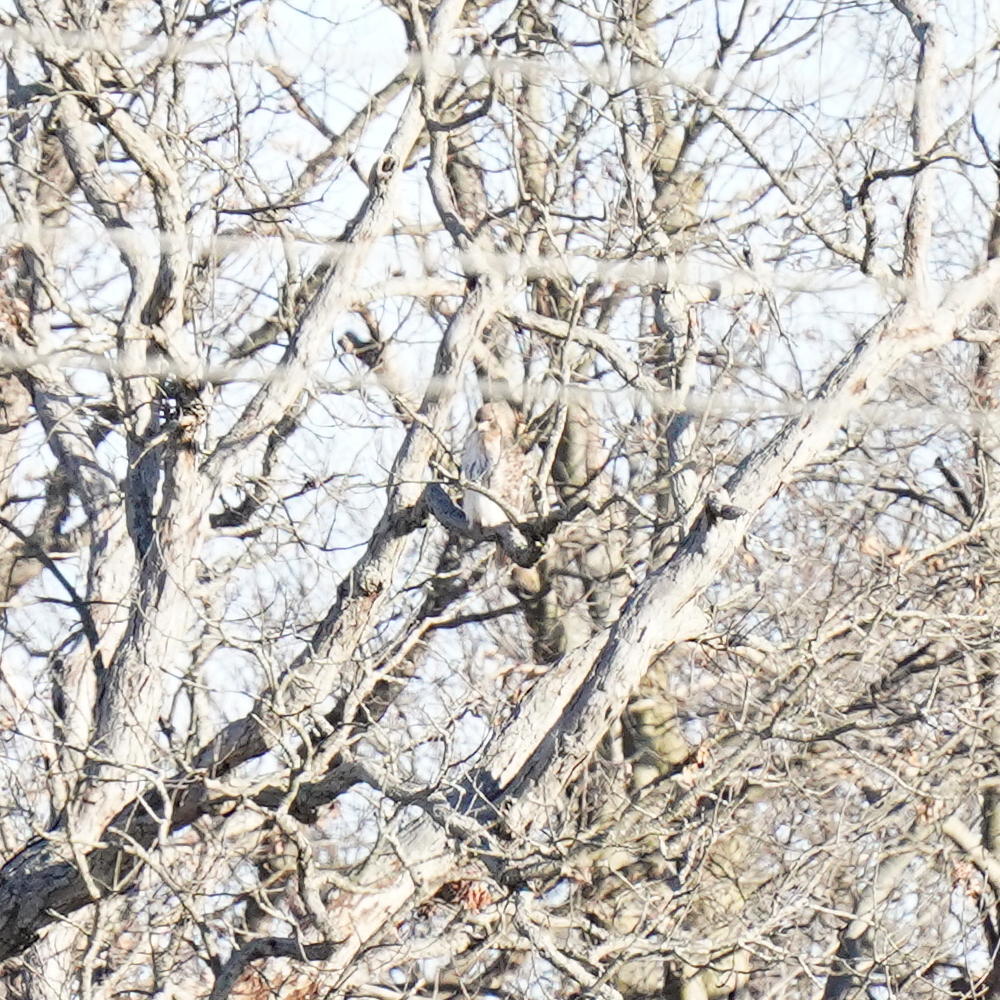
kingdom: Animalia
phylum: Chordata
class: Aves
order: Accipitriformes
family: Accipitridae
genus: Buteo
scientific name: Buteo jamaicensis
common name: Red-tailed hawk
